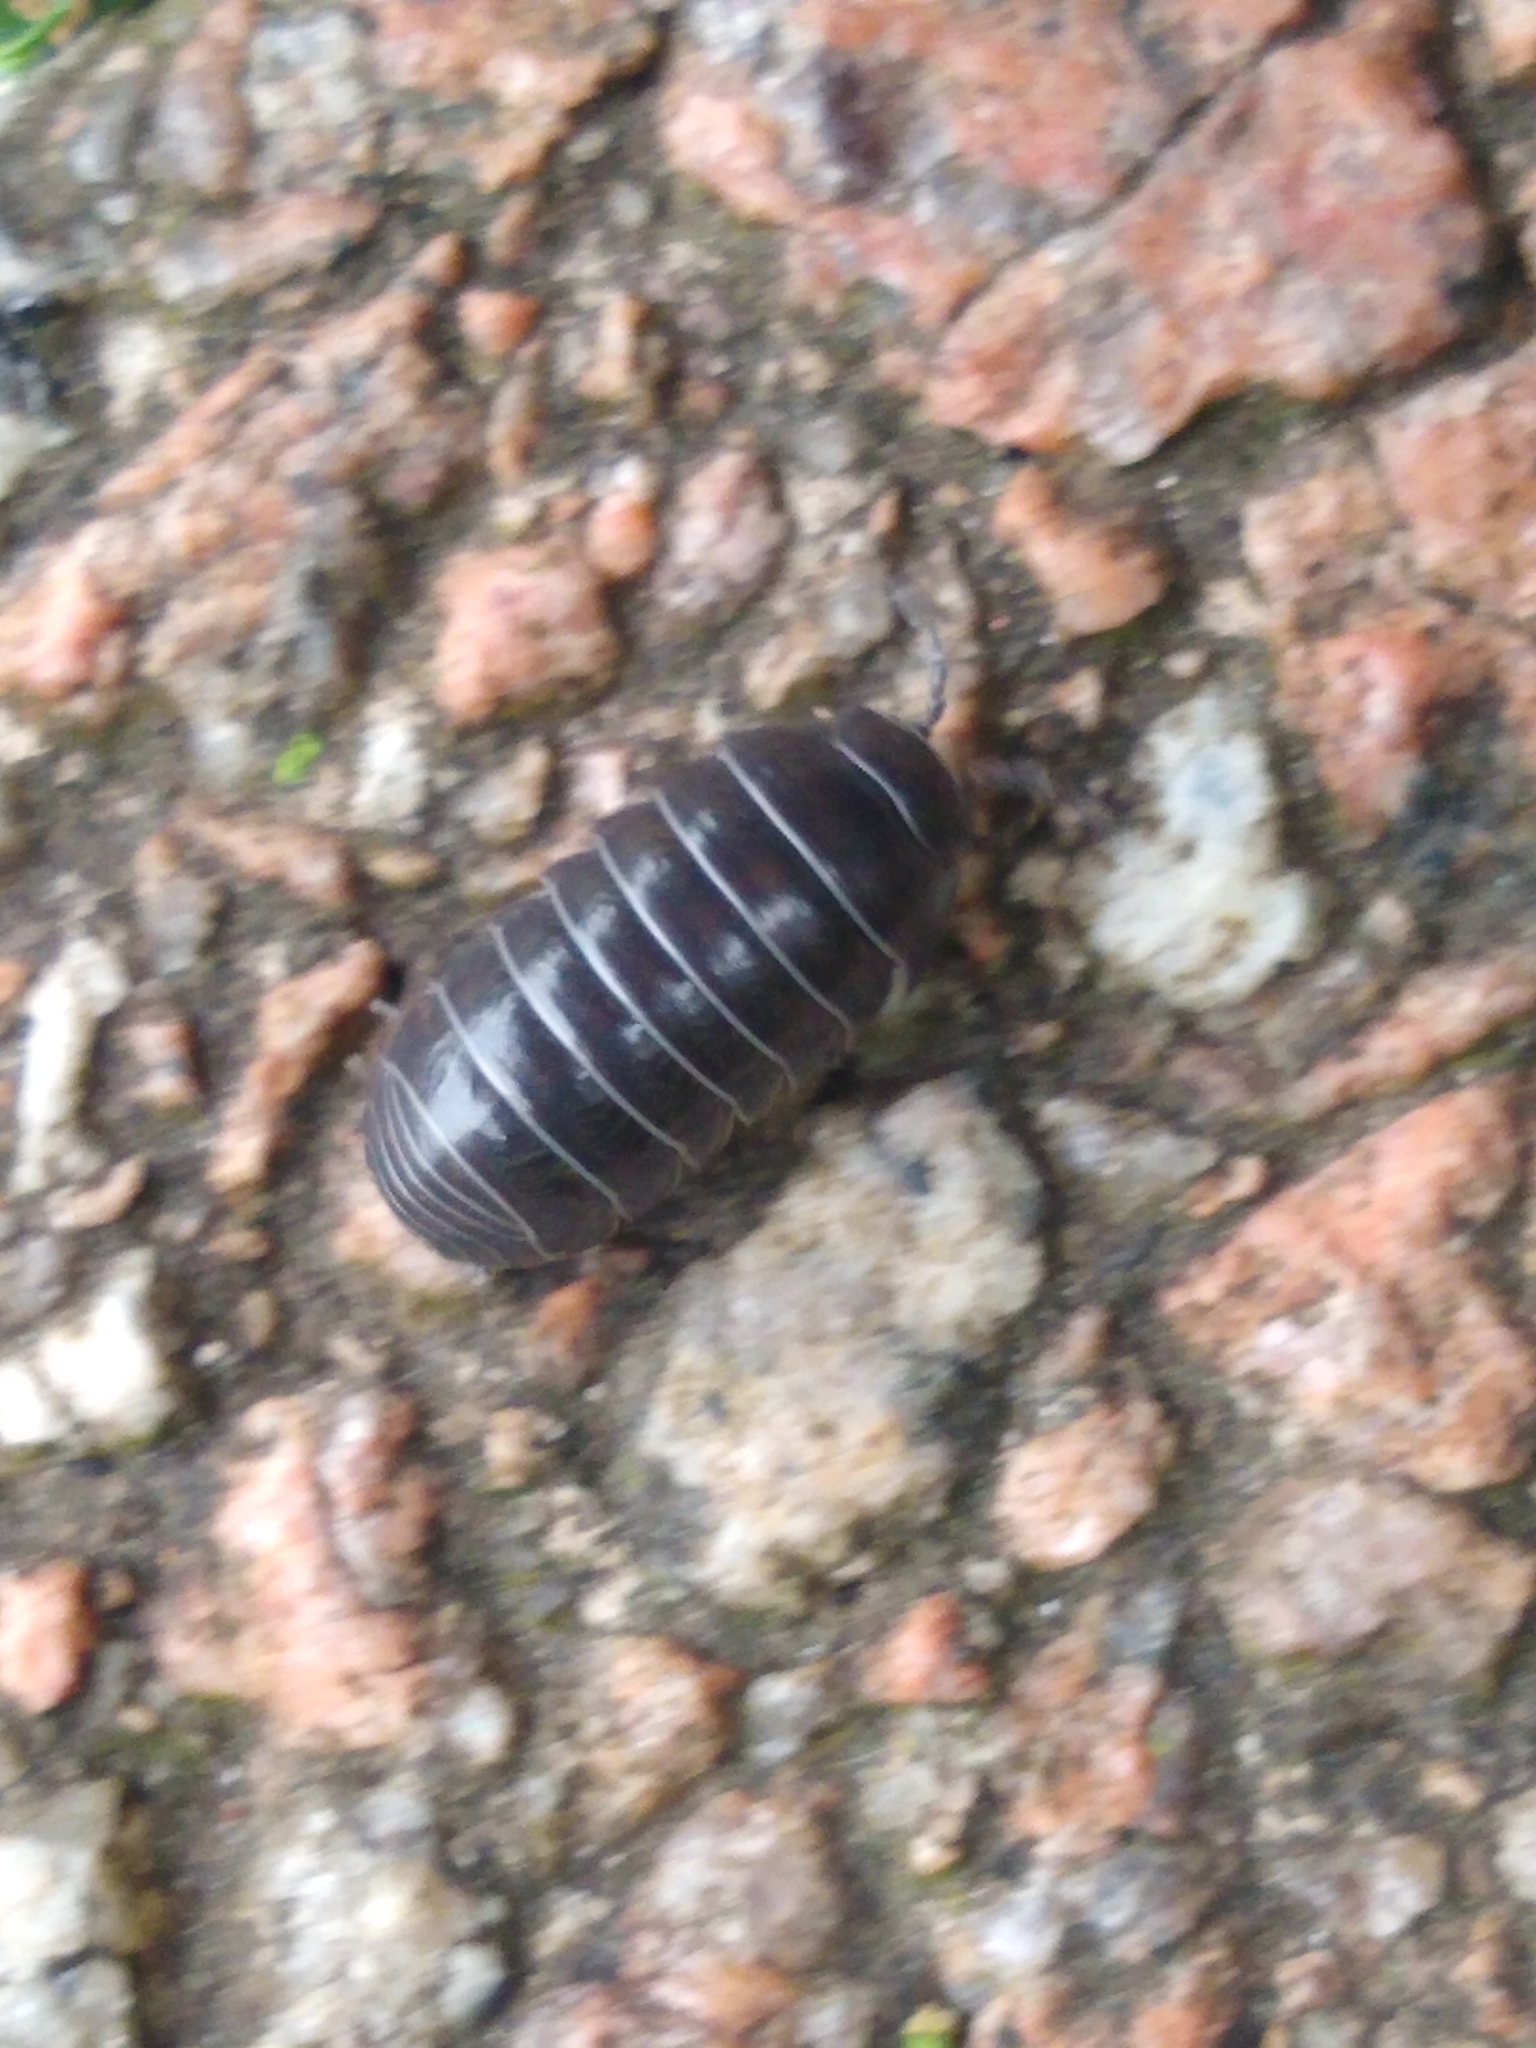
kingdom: Animalia
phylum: Arthropoda
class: Malacostraca
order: Isopoda
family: Armadillidiidae
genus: Armadillidium
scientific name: Armadillidium vulgare
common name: Common pill woodlouse
